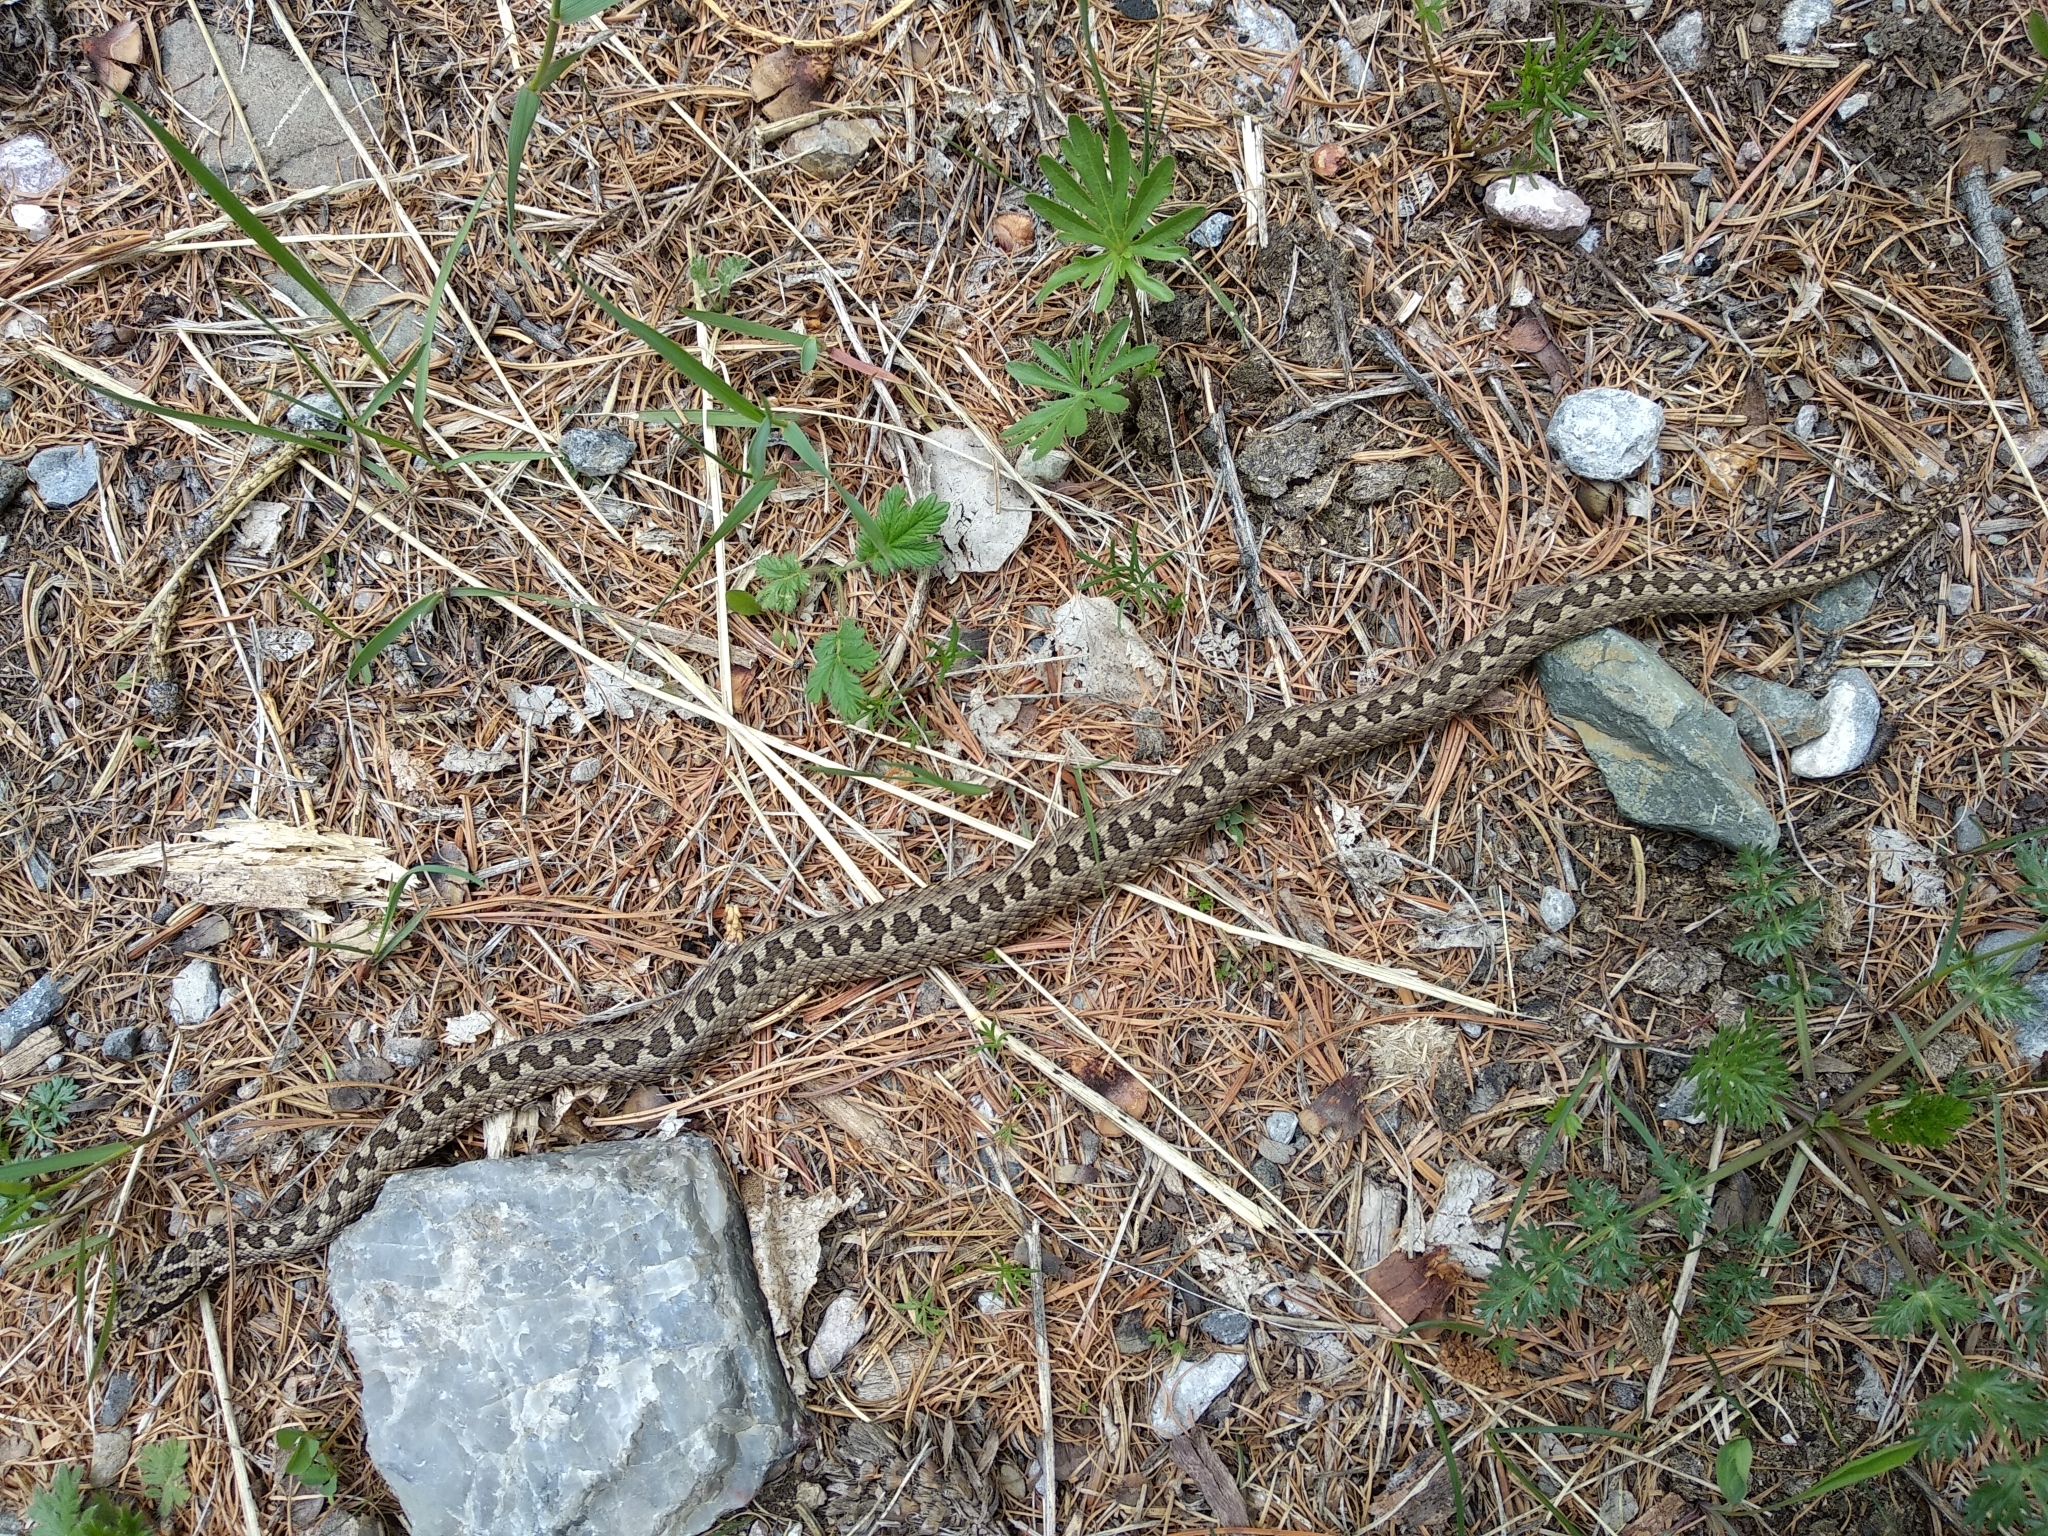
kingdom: Animalia
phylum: Chordata
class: Squamata
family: Viperidae
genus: Vipera
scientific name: Vipera altaica
